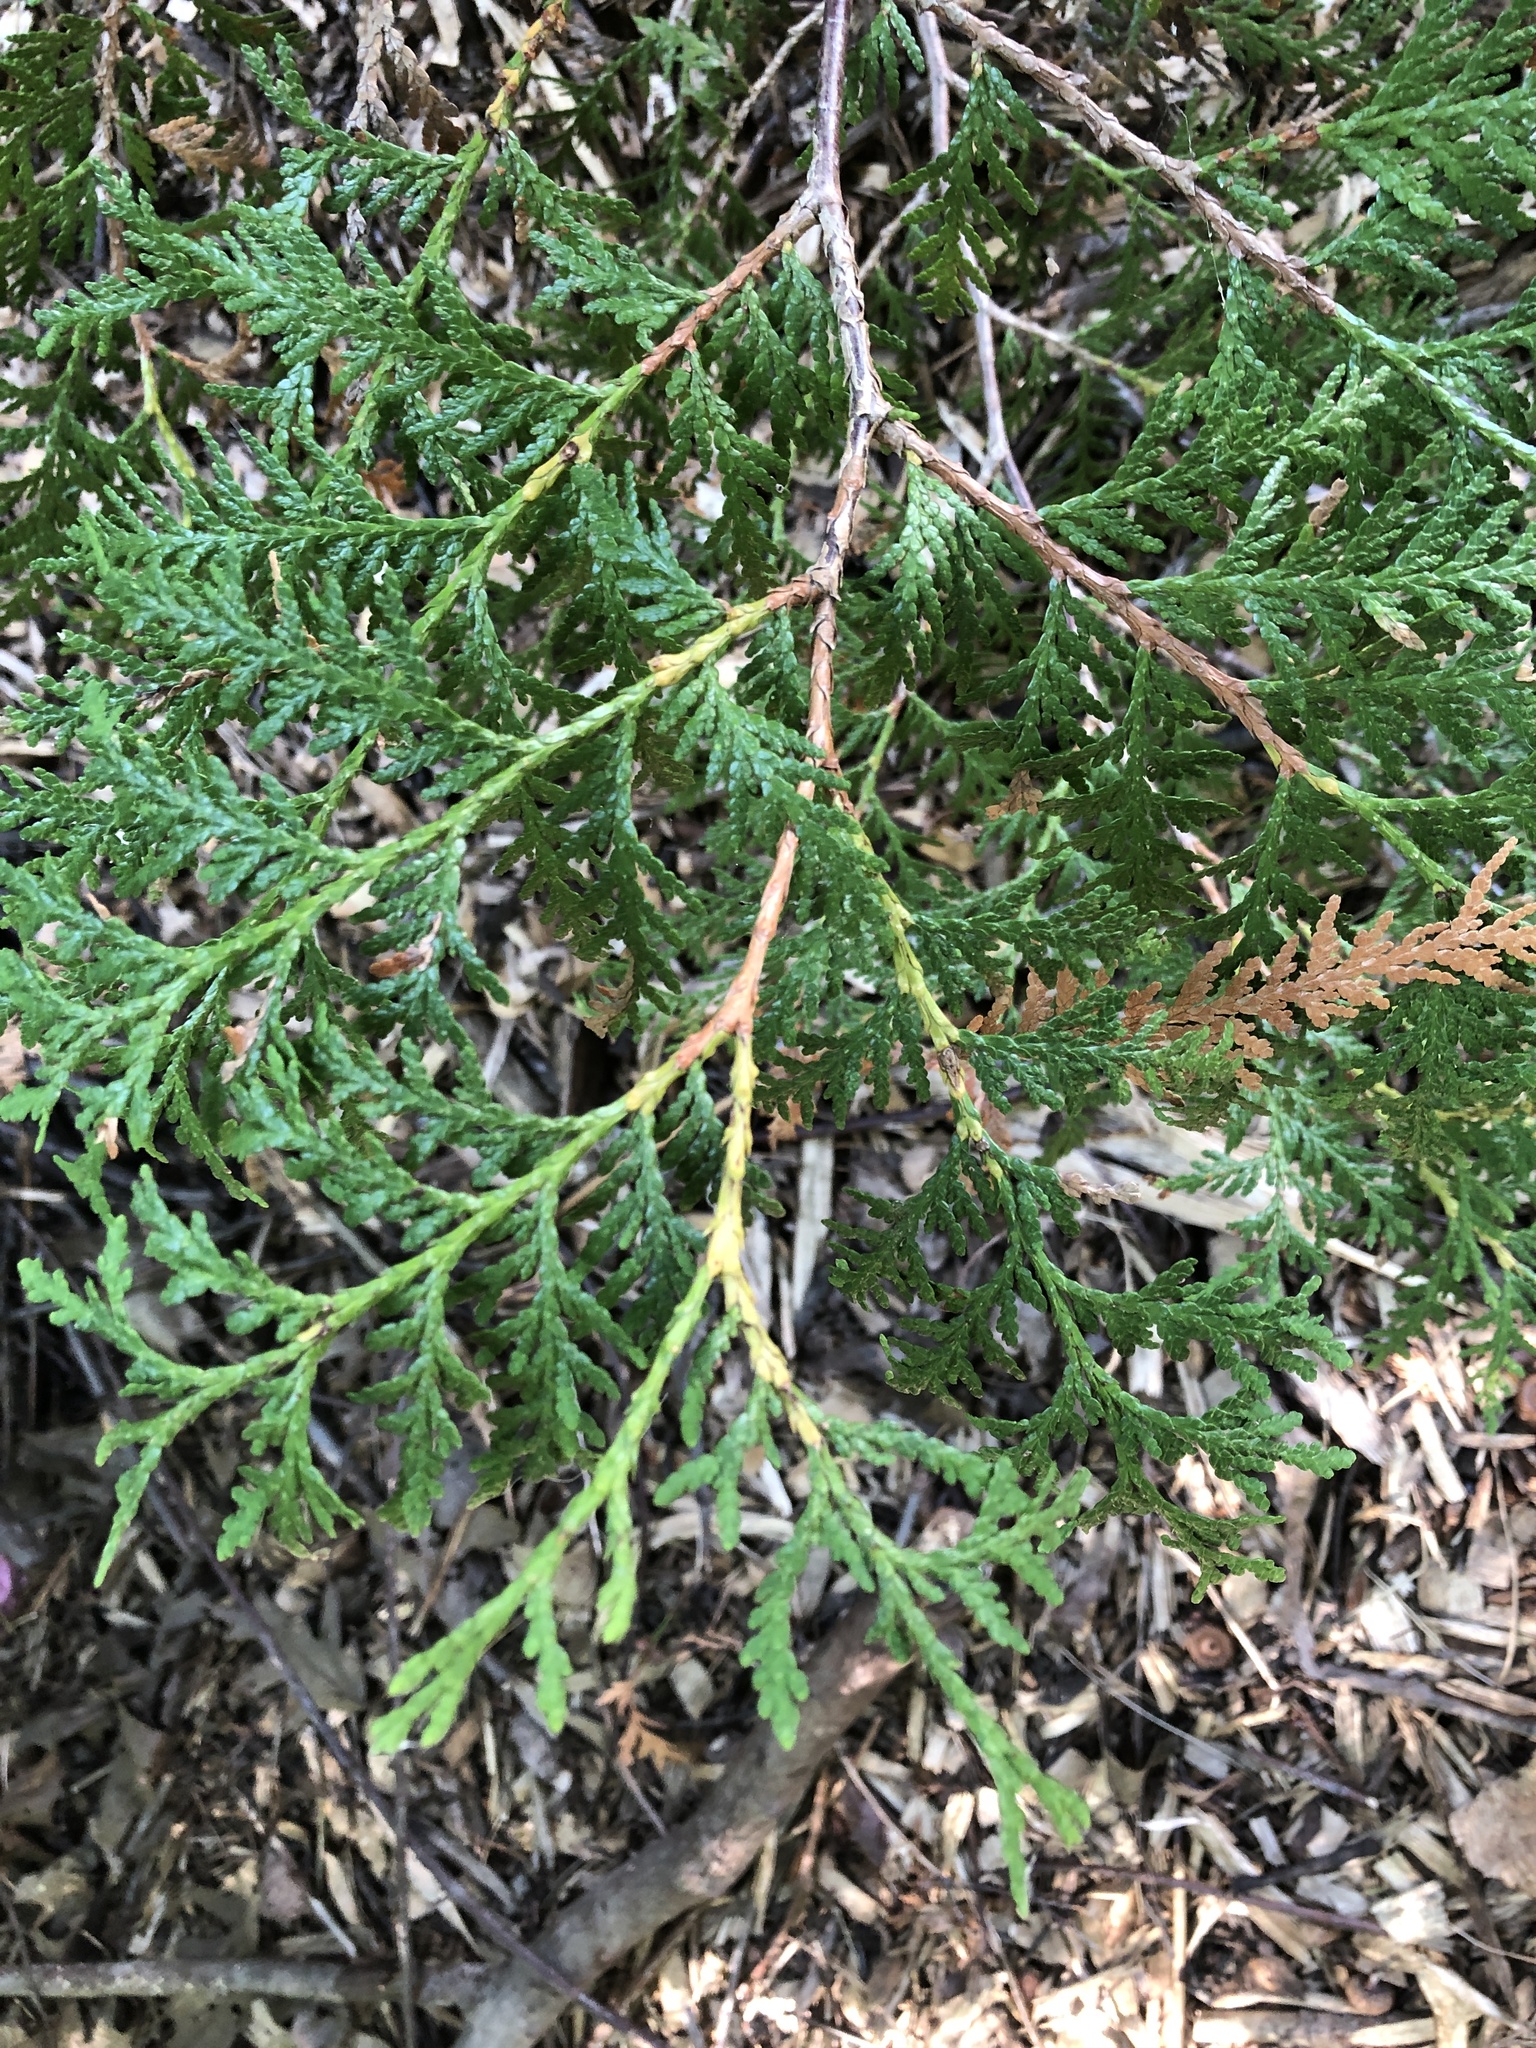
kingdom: Plantae
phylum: Tracheophyta
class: Pinopsida
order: Pinales
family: Cupressaceae
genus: Thuja
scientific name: Thuja occidentalis
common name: Northern white-cedar
